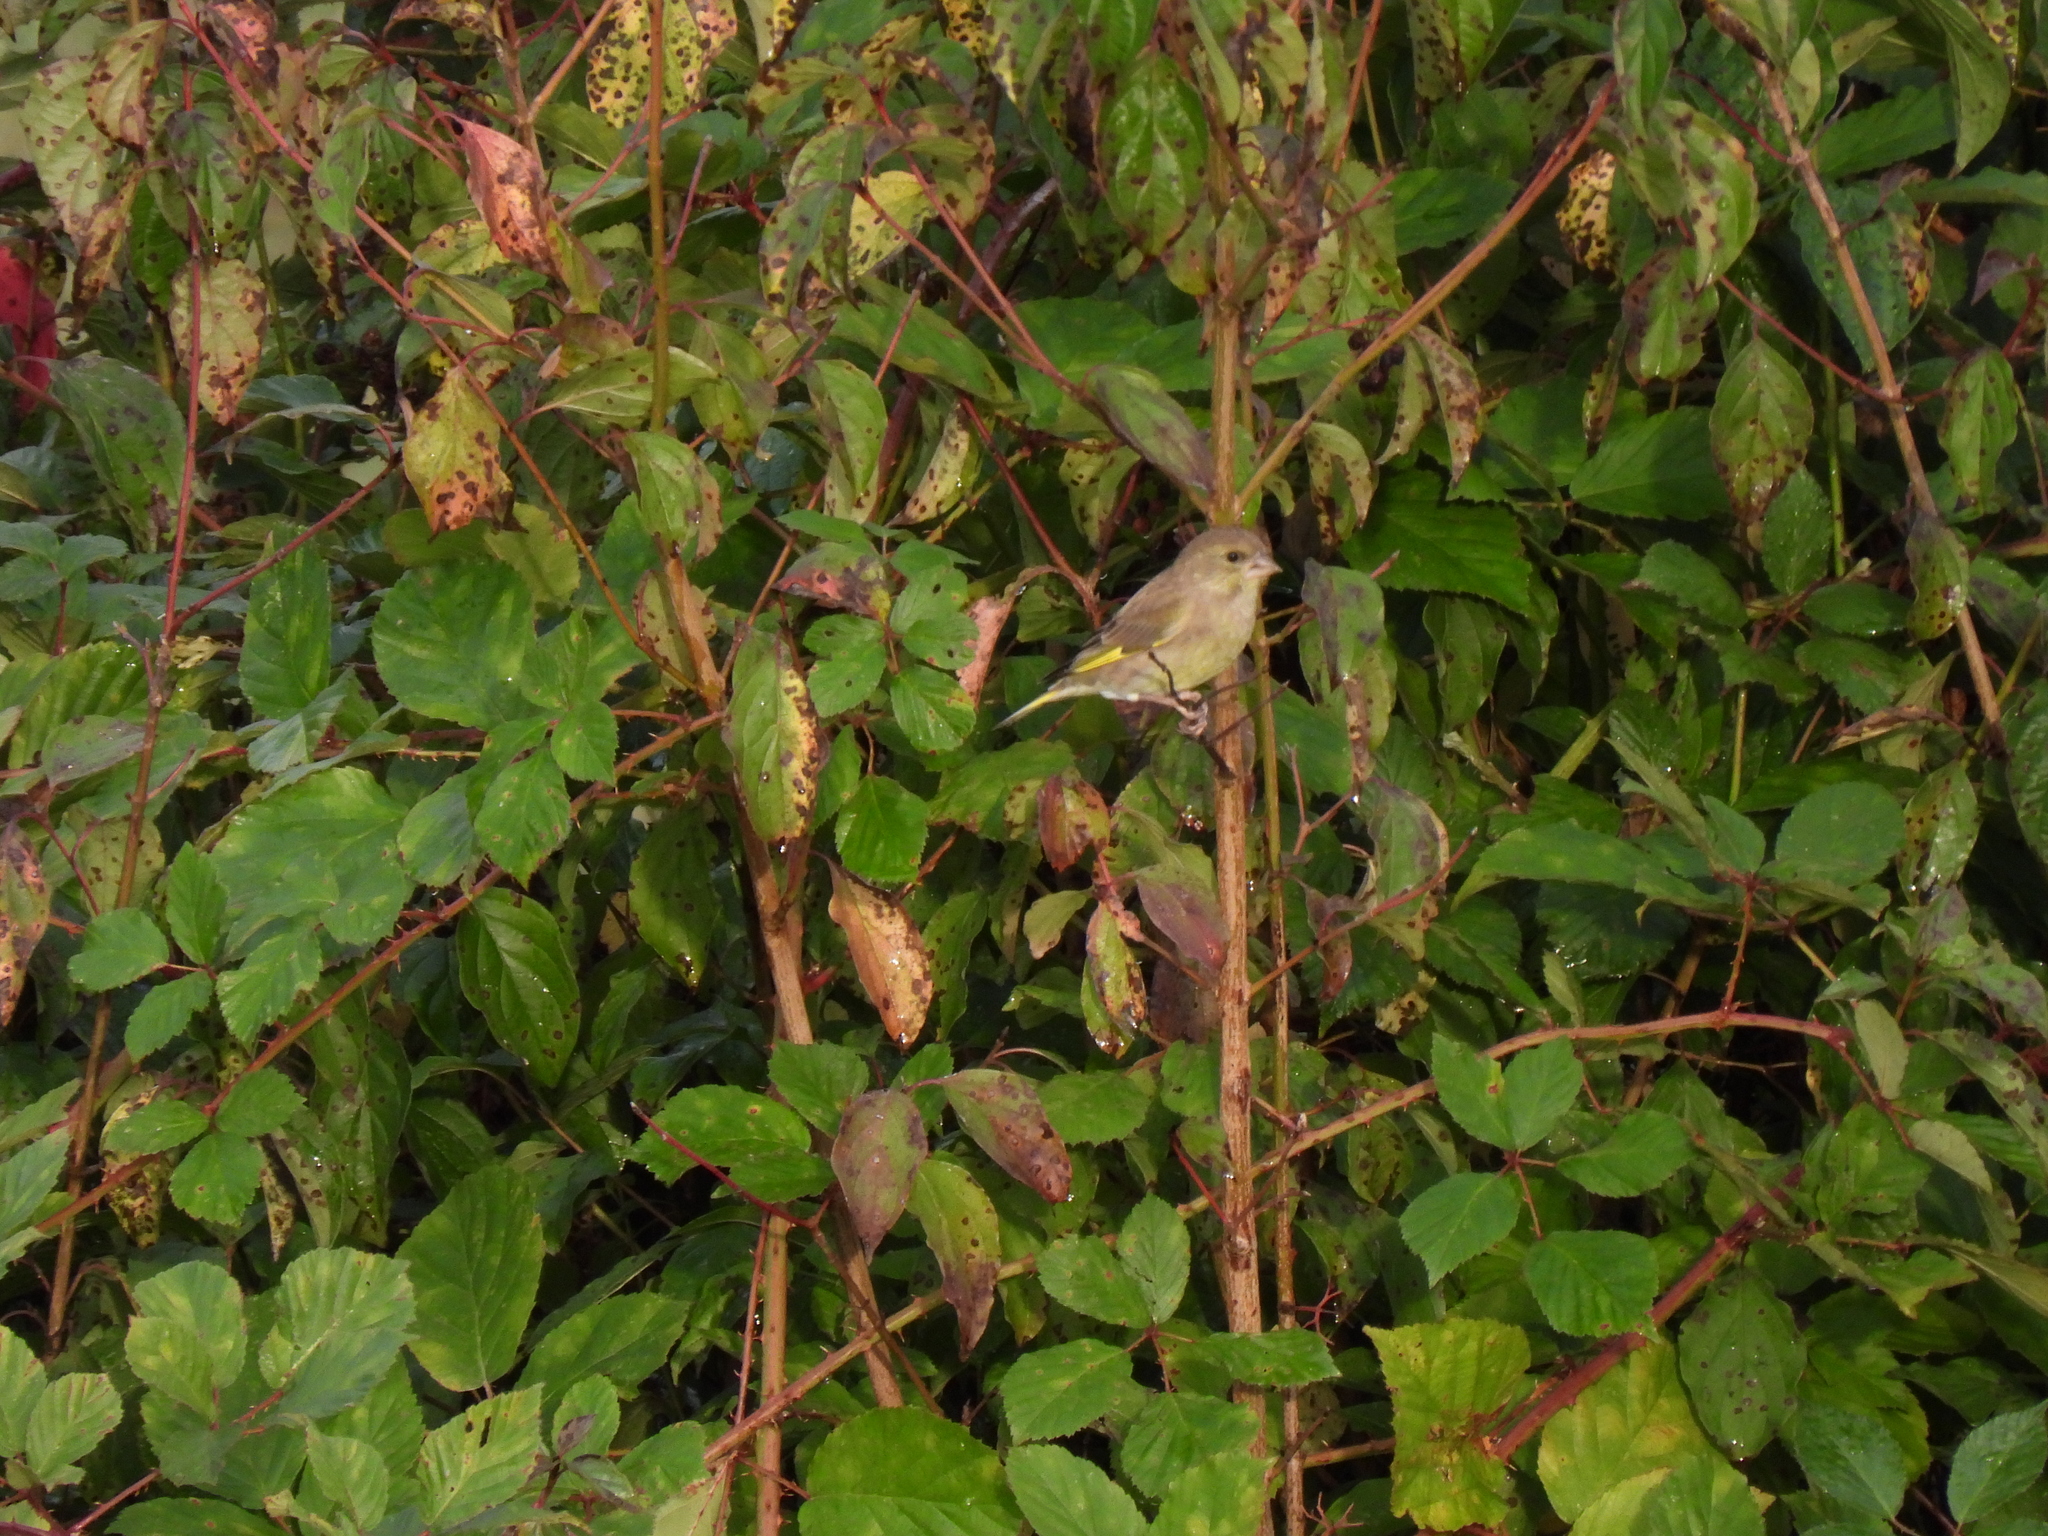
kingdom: Plantae
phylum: Tracheophyta
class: Liliopsida
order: Poales
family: Poaceae
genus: Chloris
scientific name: Chloris chloris
